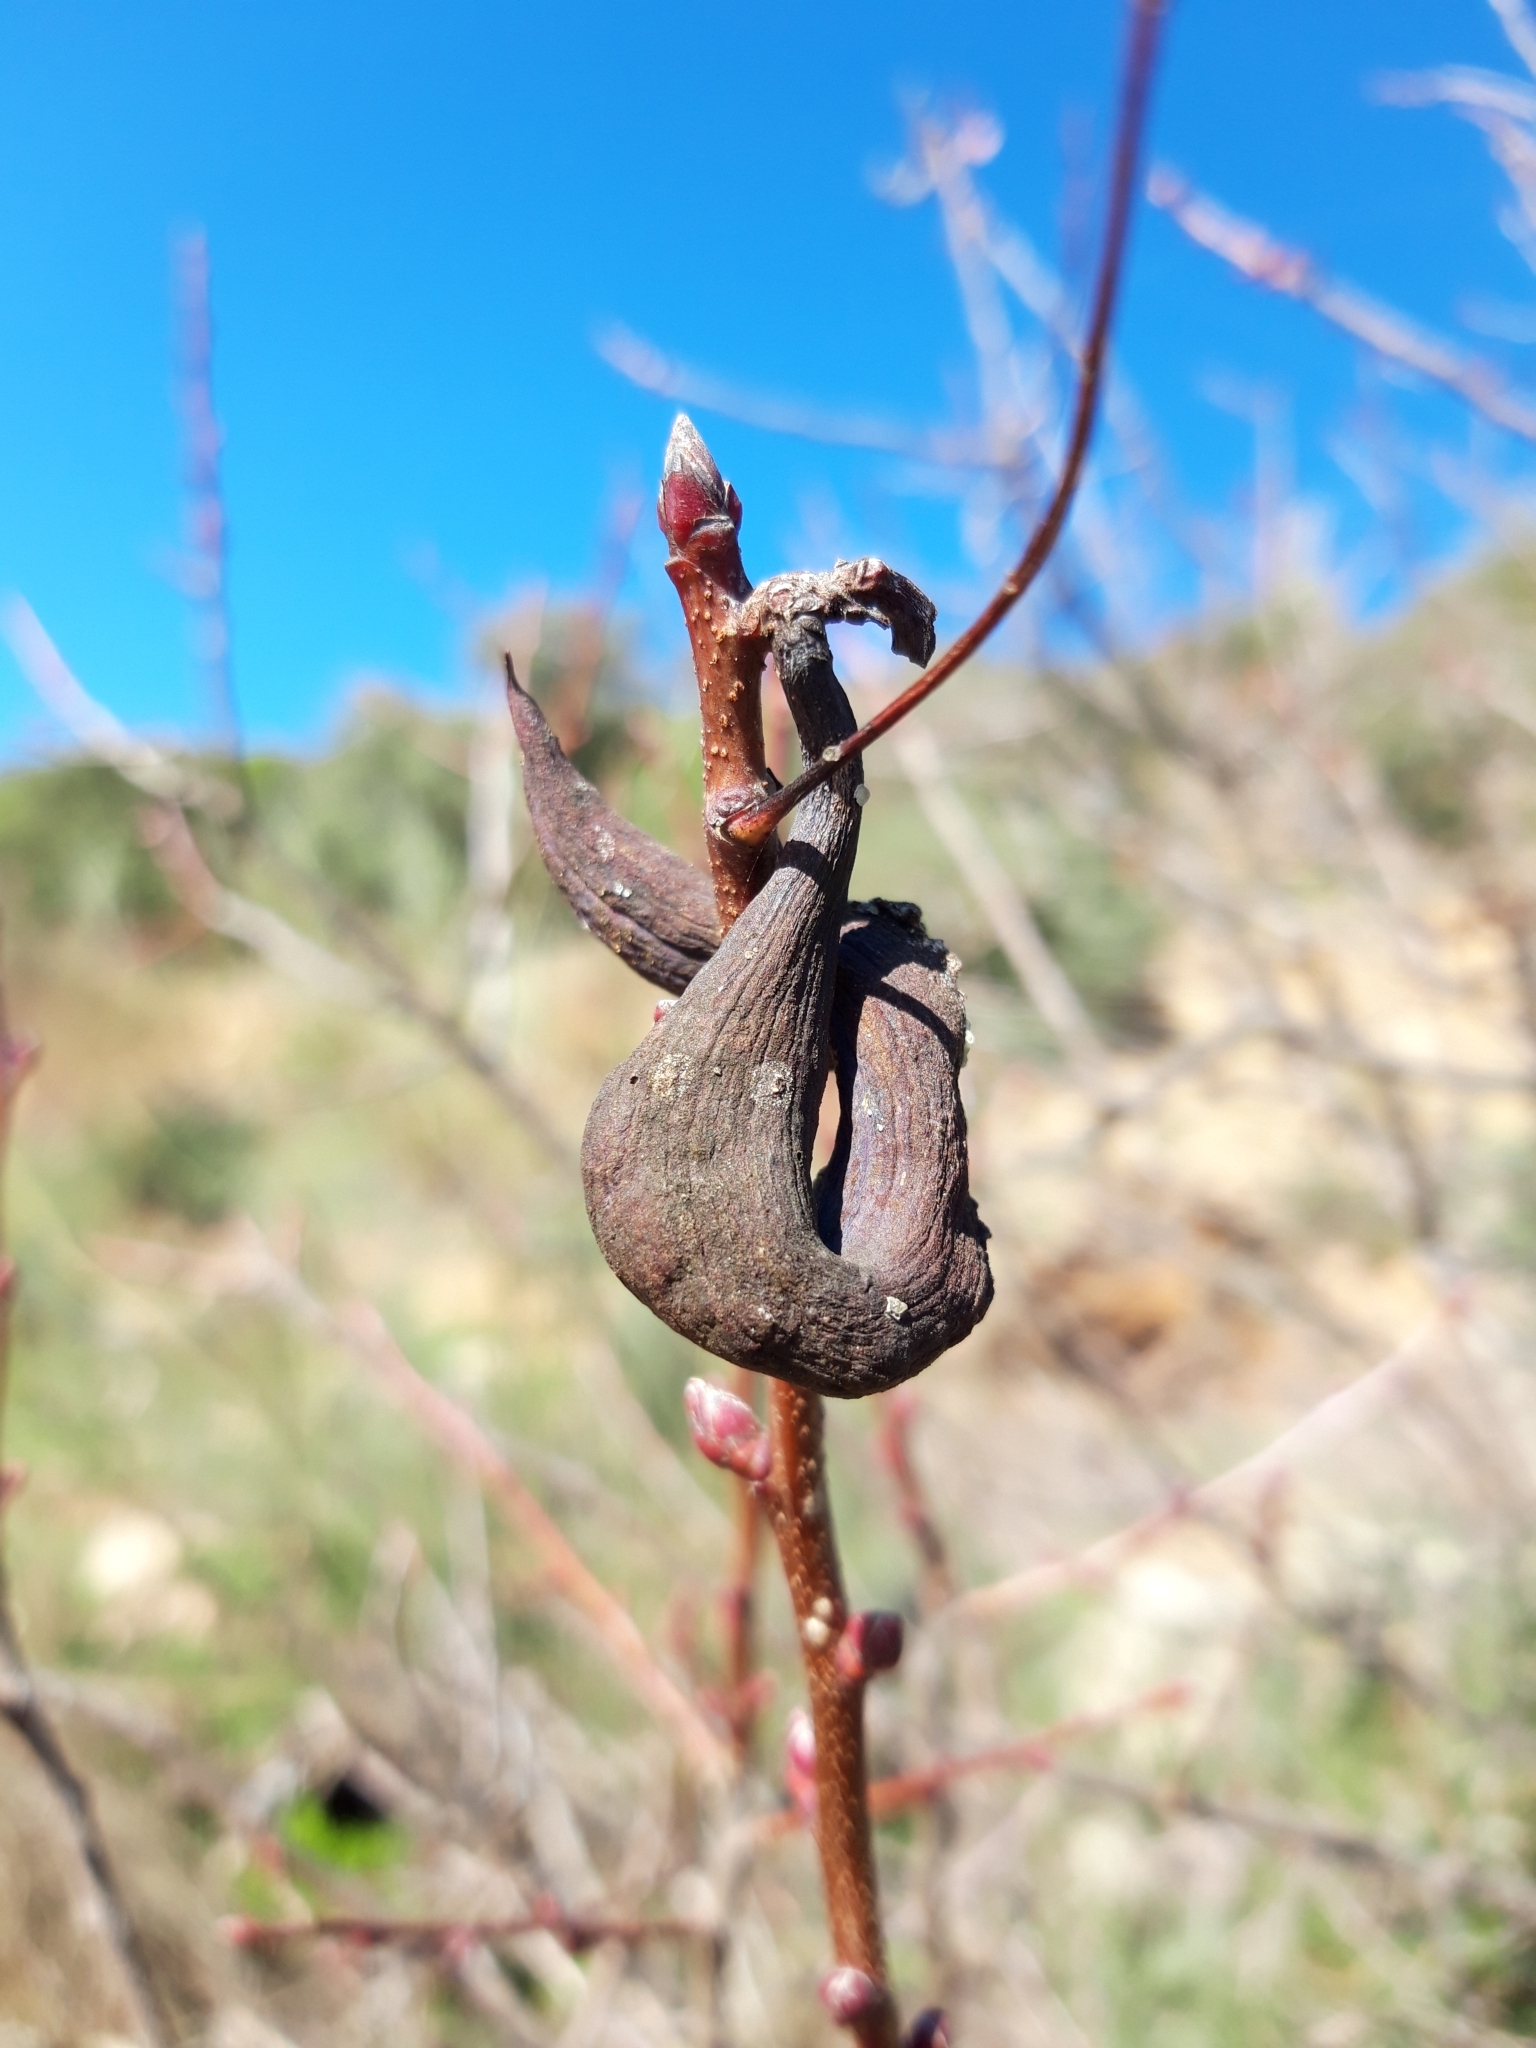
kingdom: Animalia
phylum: Arthropoda
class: Insecta
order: Hemiptera
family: Aphididae
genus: Baizongia
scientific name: Baizongia pistaciae
